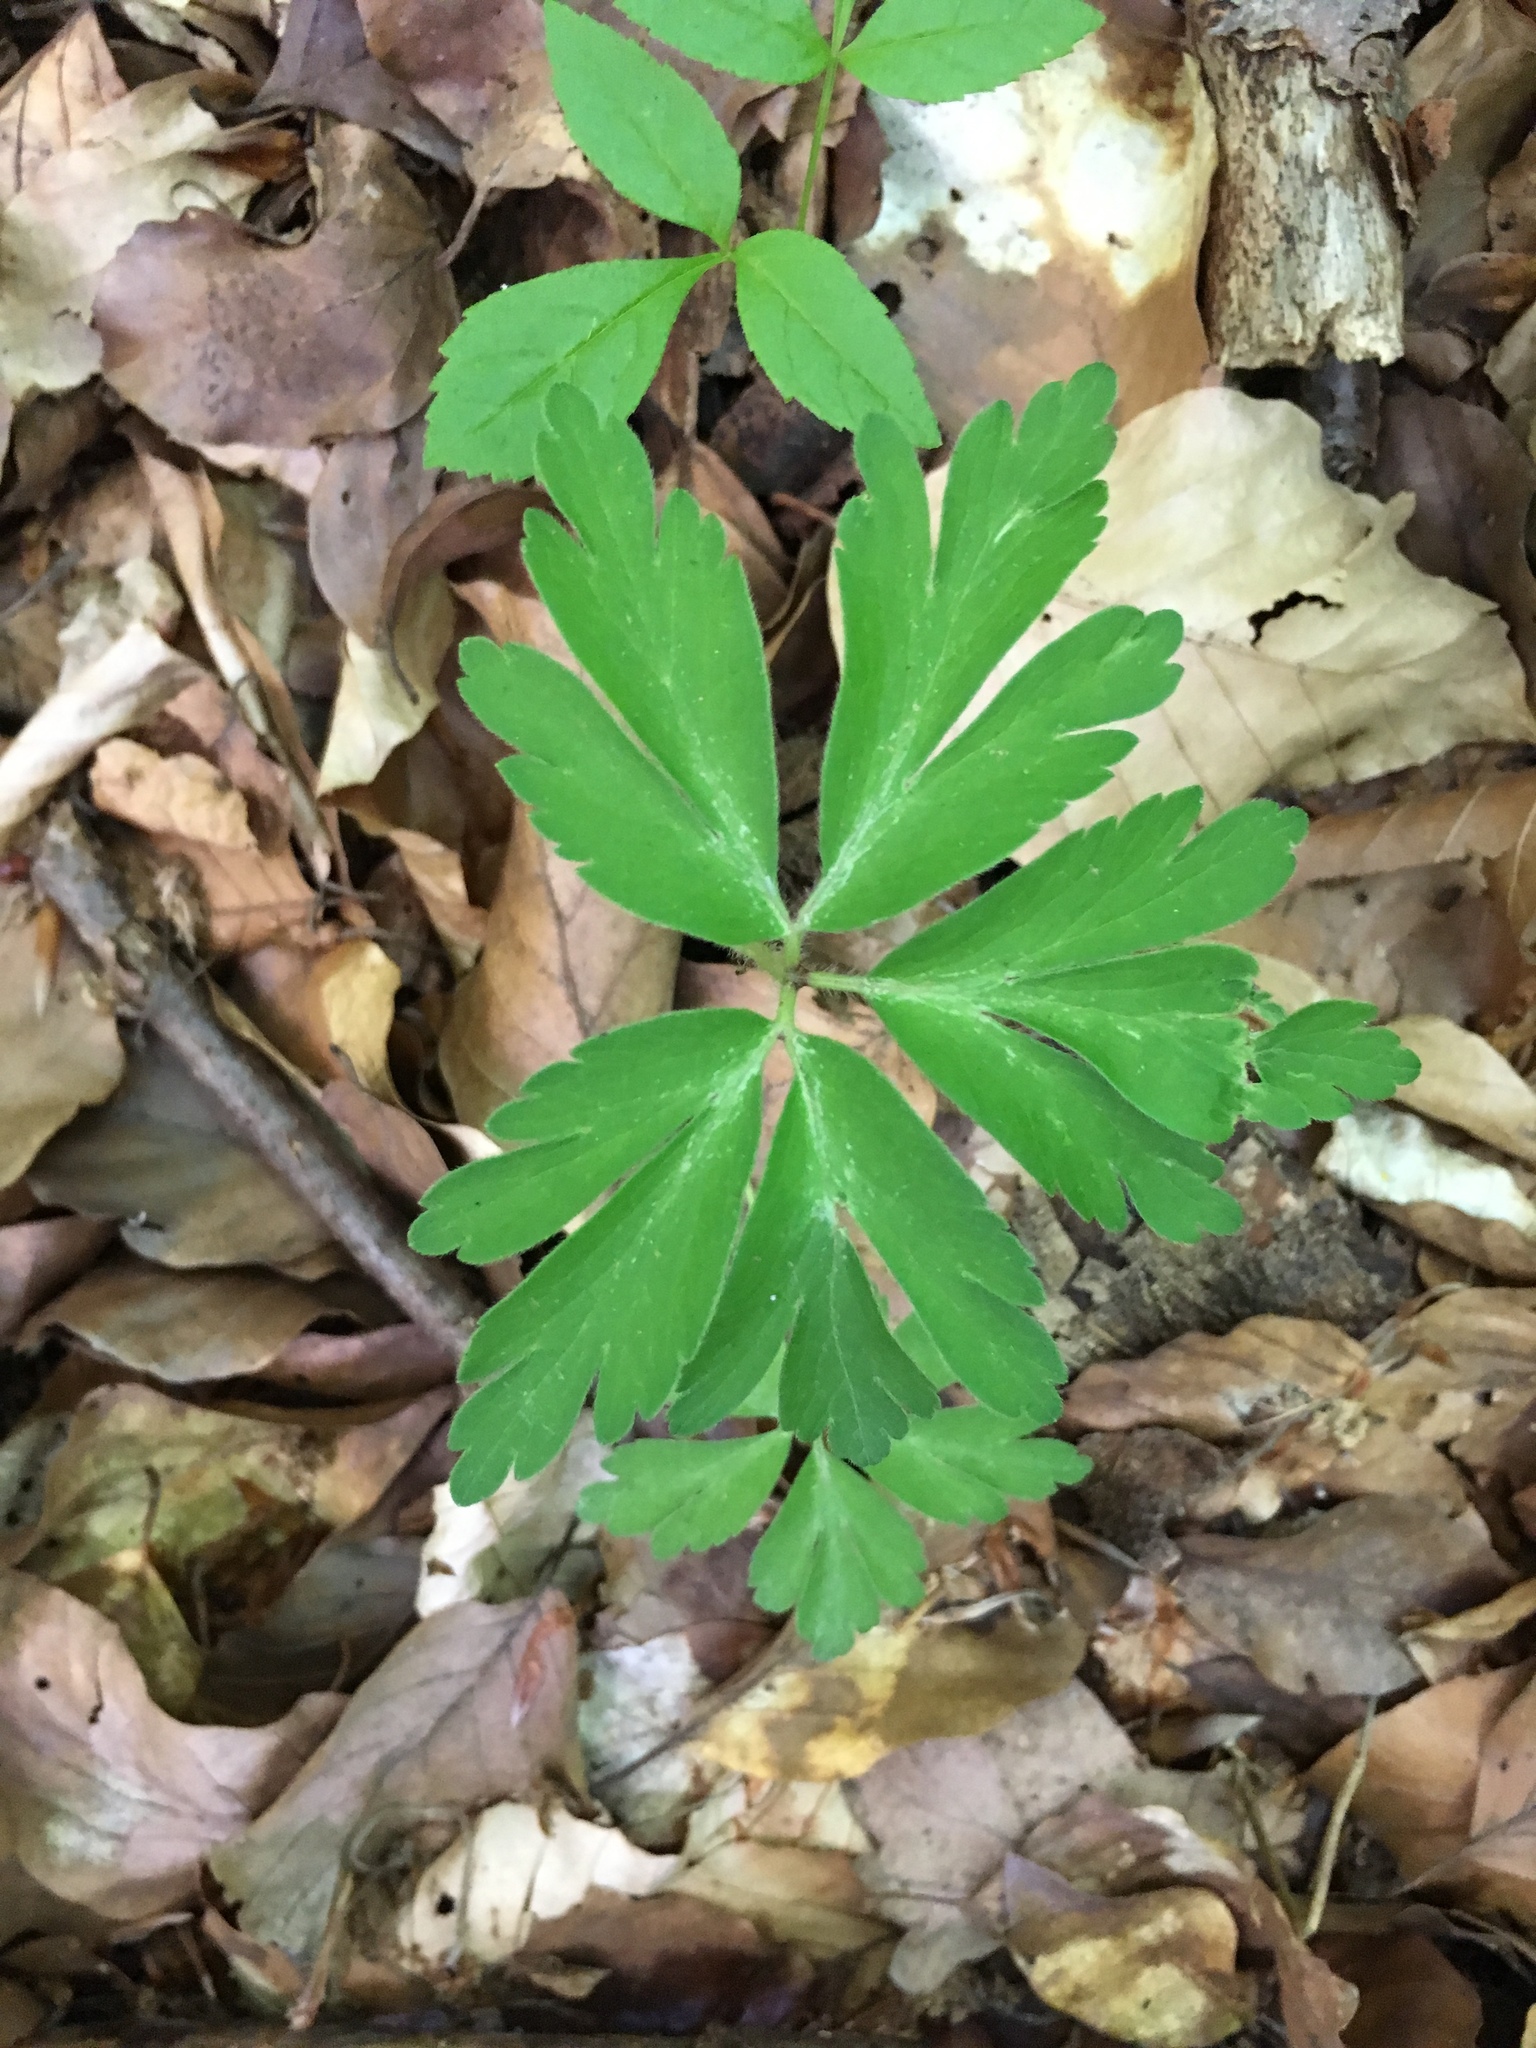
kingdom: Plantae
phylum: Tracheophyta
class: Magnoliopsida
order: Ranunculales
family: Ranunculaceae
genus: Anemone
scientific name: Anemone nemorosa
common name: Wood anemone
